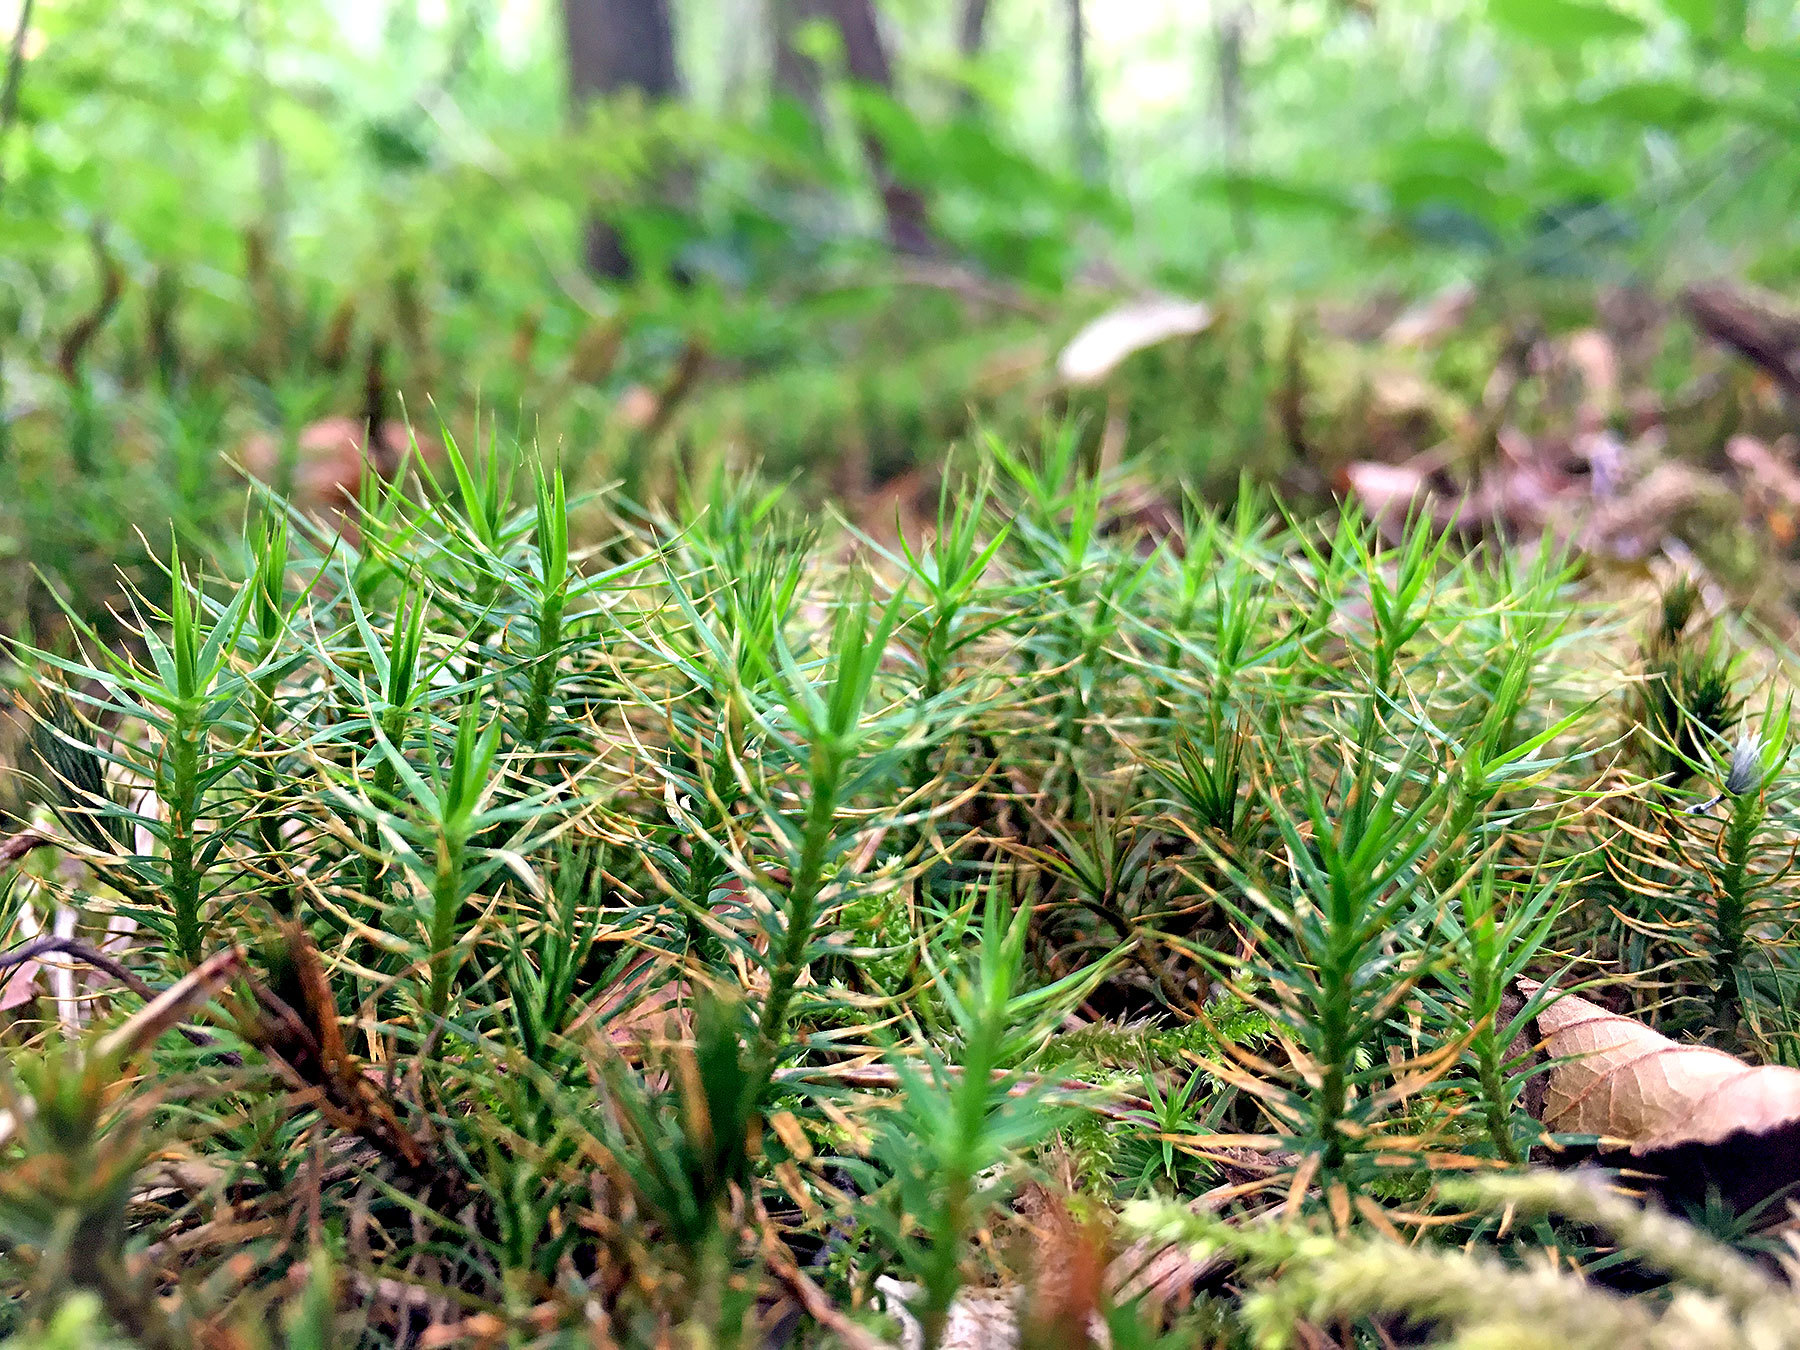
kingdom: Plantae
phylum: Bryophyta
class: Polytrichopsida
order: Polytrichales
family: Polytrichaceae
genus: Polytrichum
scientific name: Polytrichum formosum
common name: Bank haircap moss
